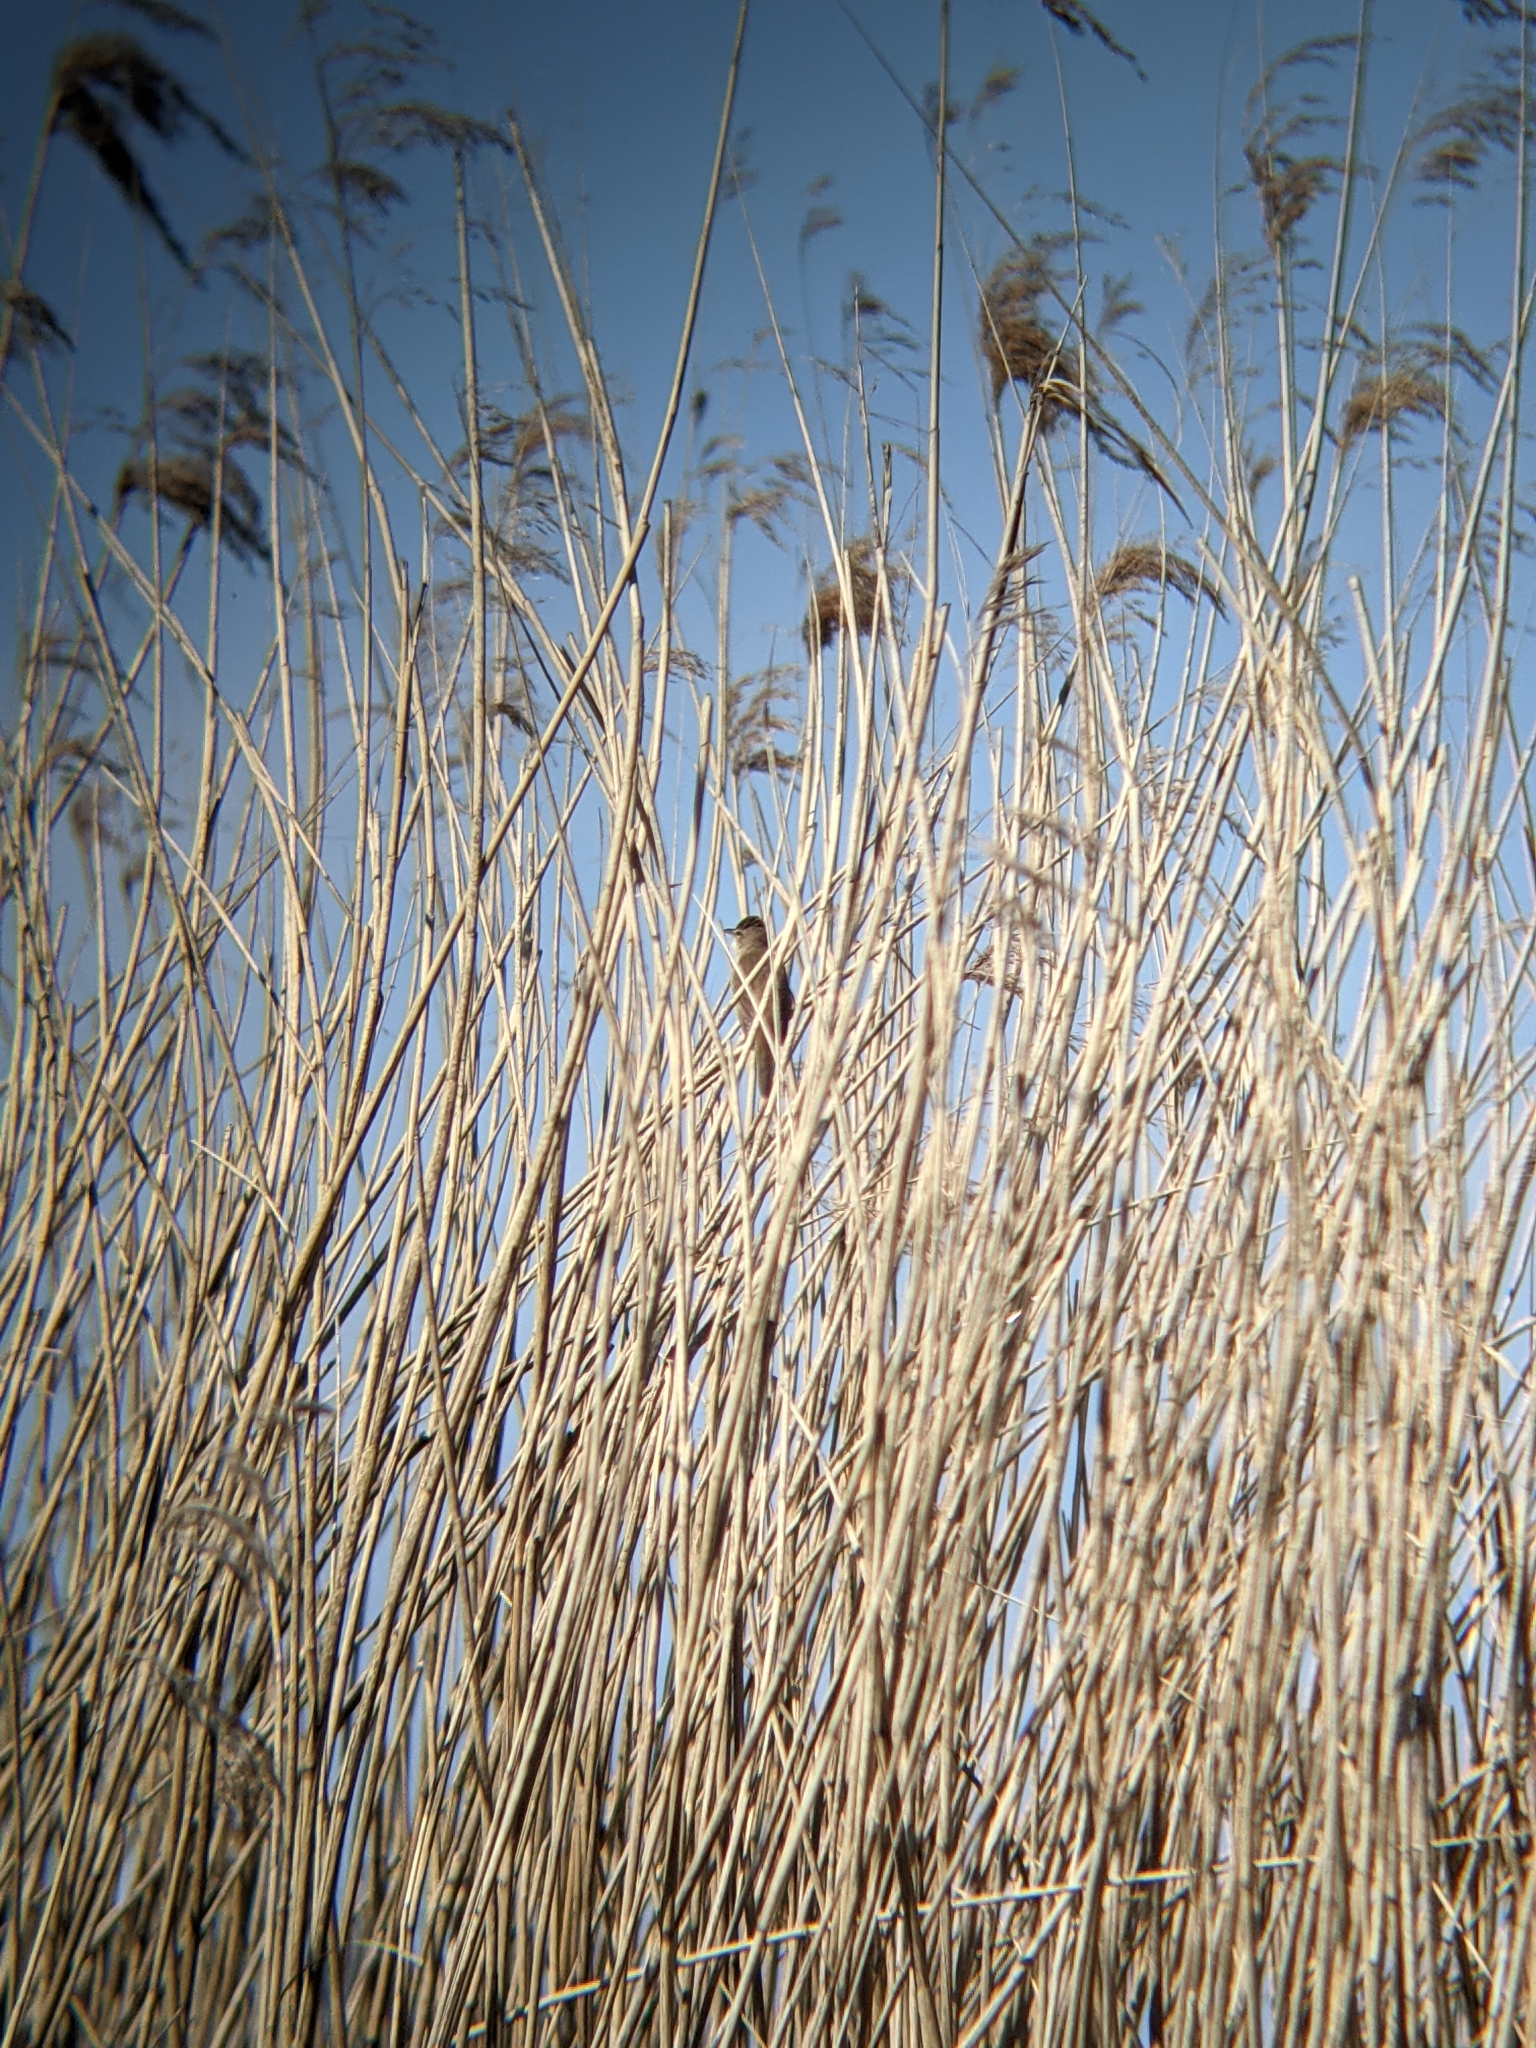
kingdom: Animalia
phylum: Chordata
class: Aves
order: Passeriformes
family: Acrocephalidae
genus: Acrocephalus
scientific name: Acrocephalus arundinaceus
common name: Great reed warbler
